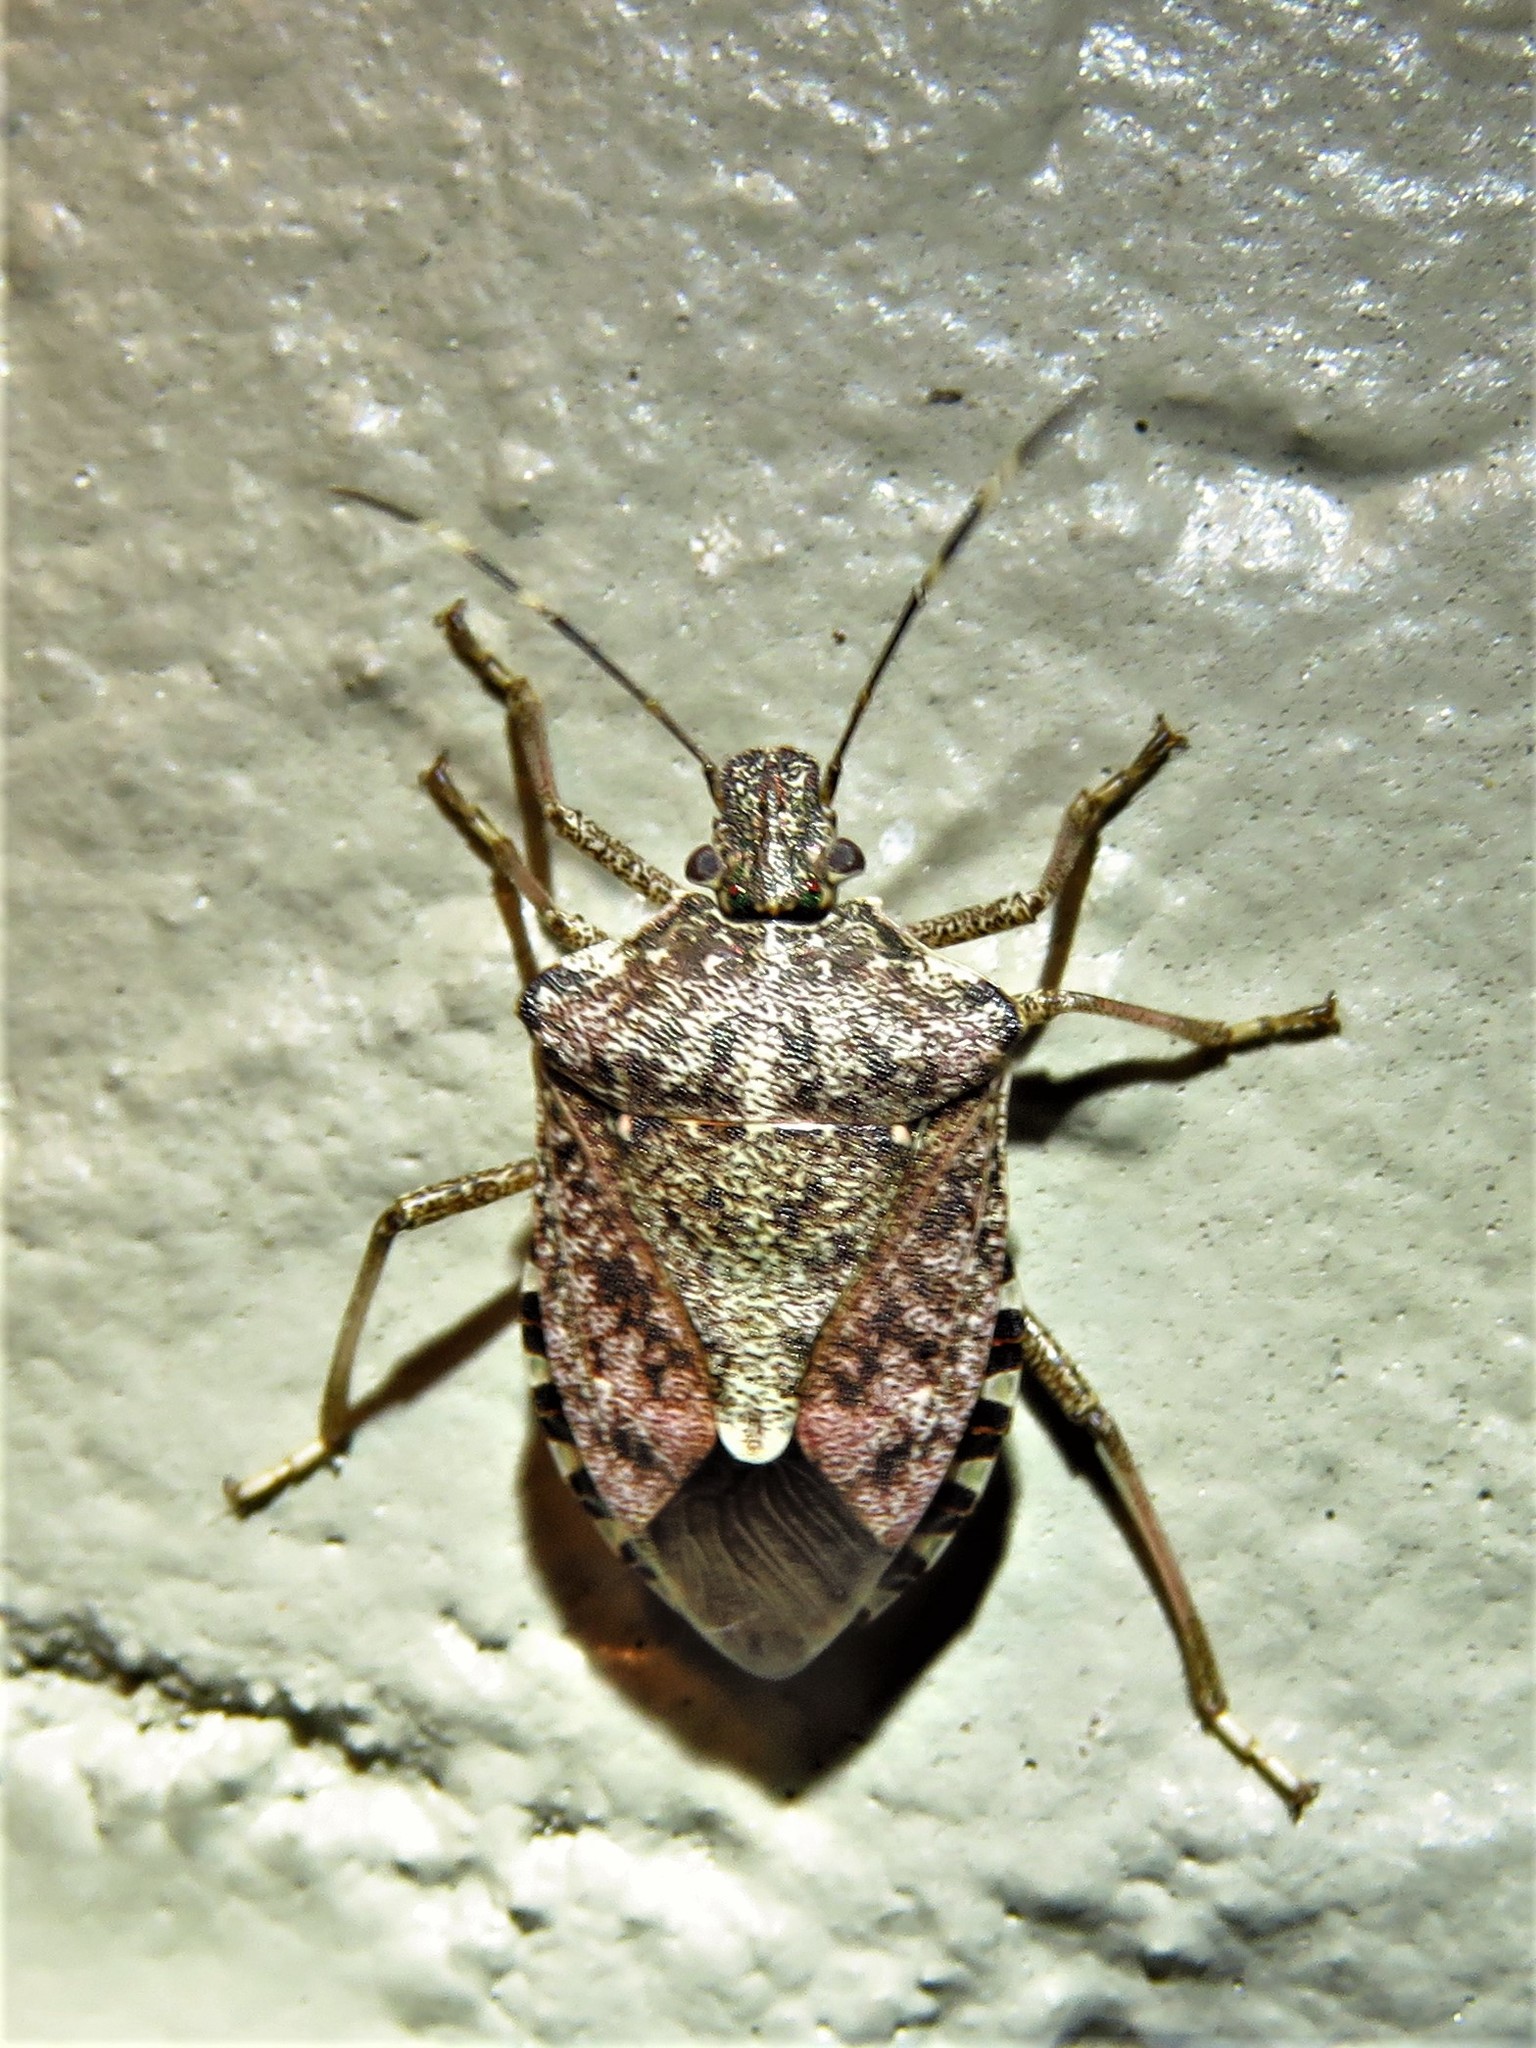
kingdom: Animalia
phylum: Arthropoda
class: Insecta
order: Hemiptera
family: Pentatomidae
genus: Halyomorpha
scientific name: Halyomorpha halys
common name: Brown marmorated stink bug
